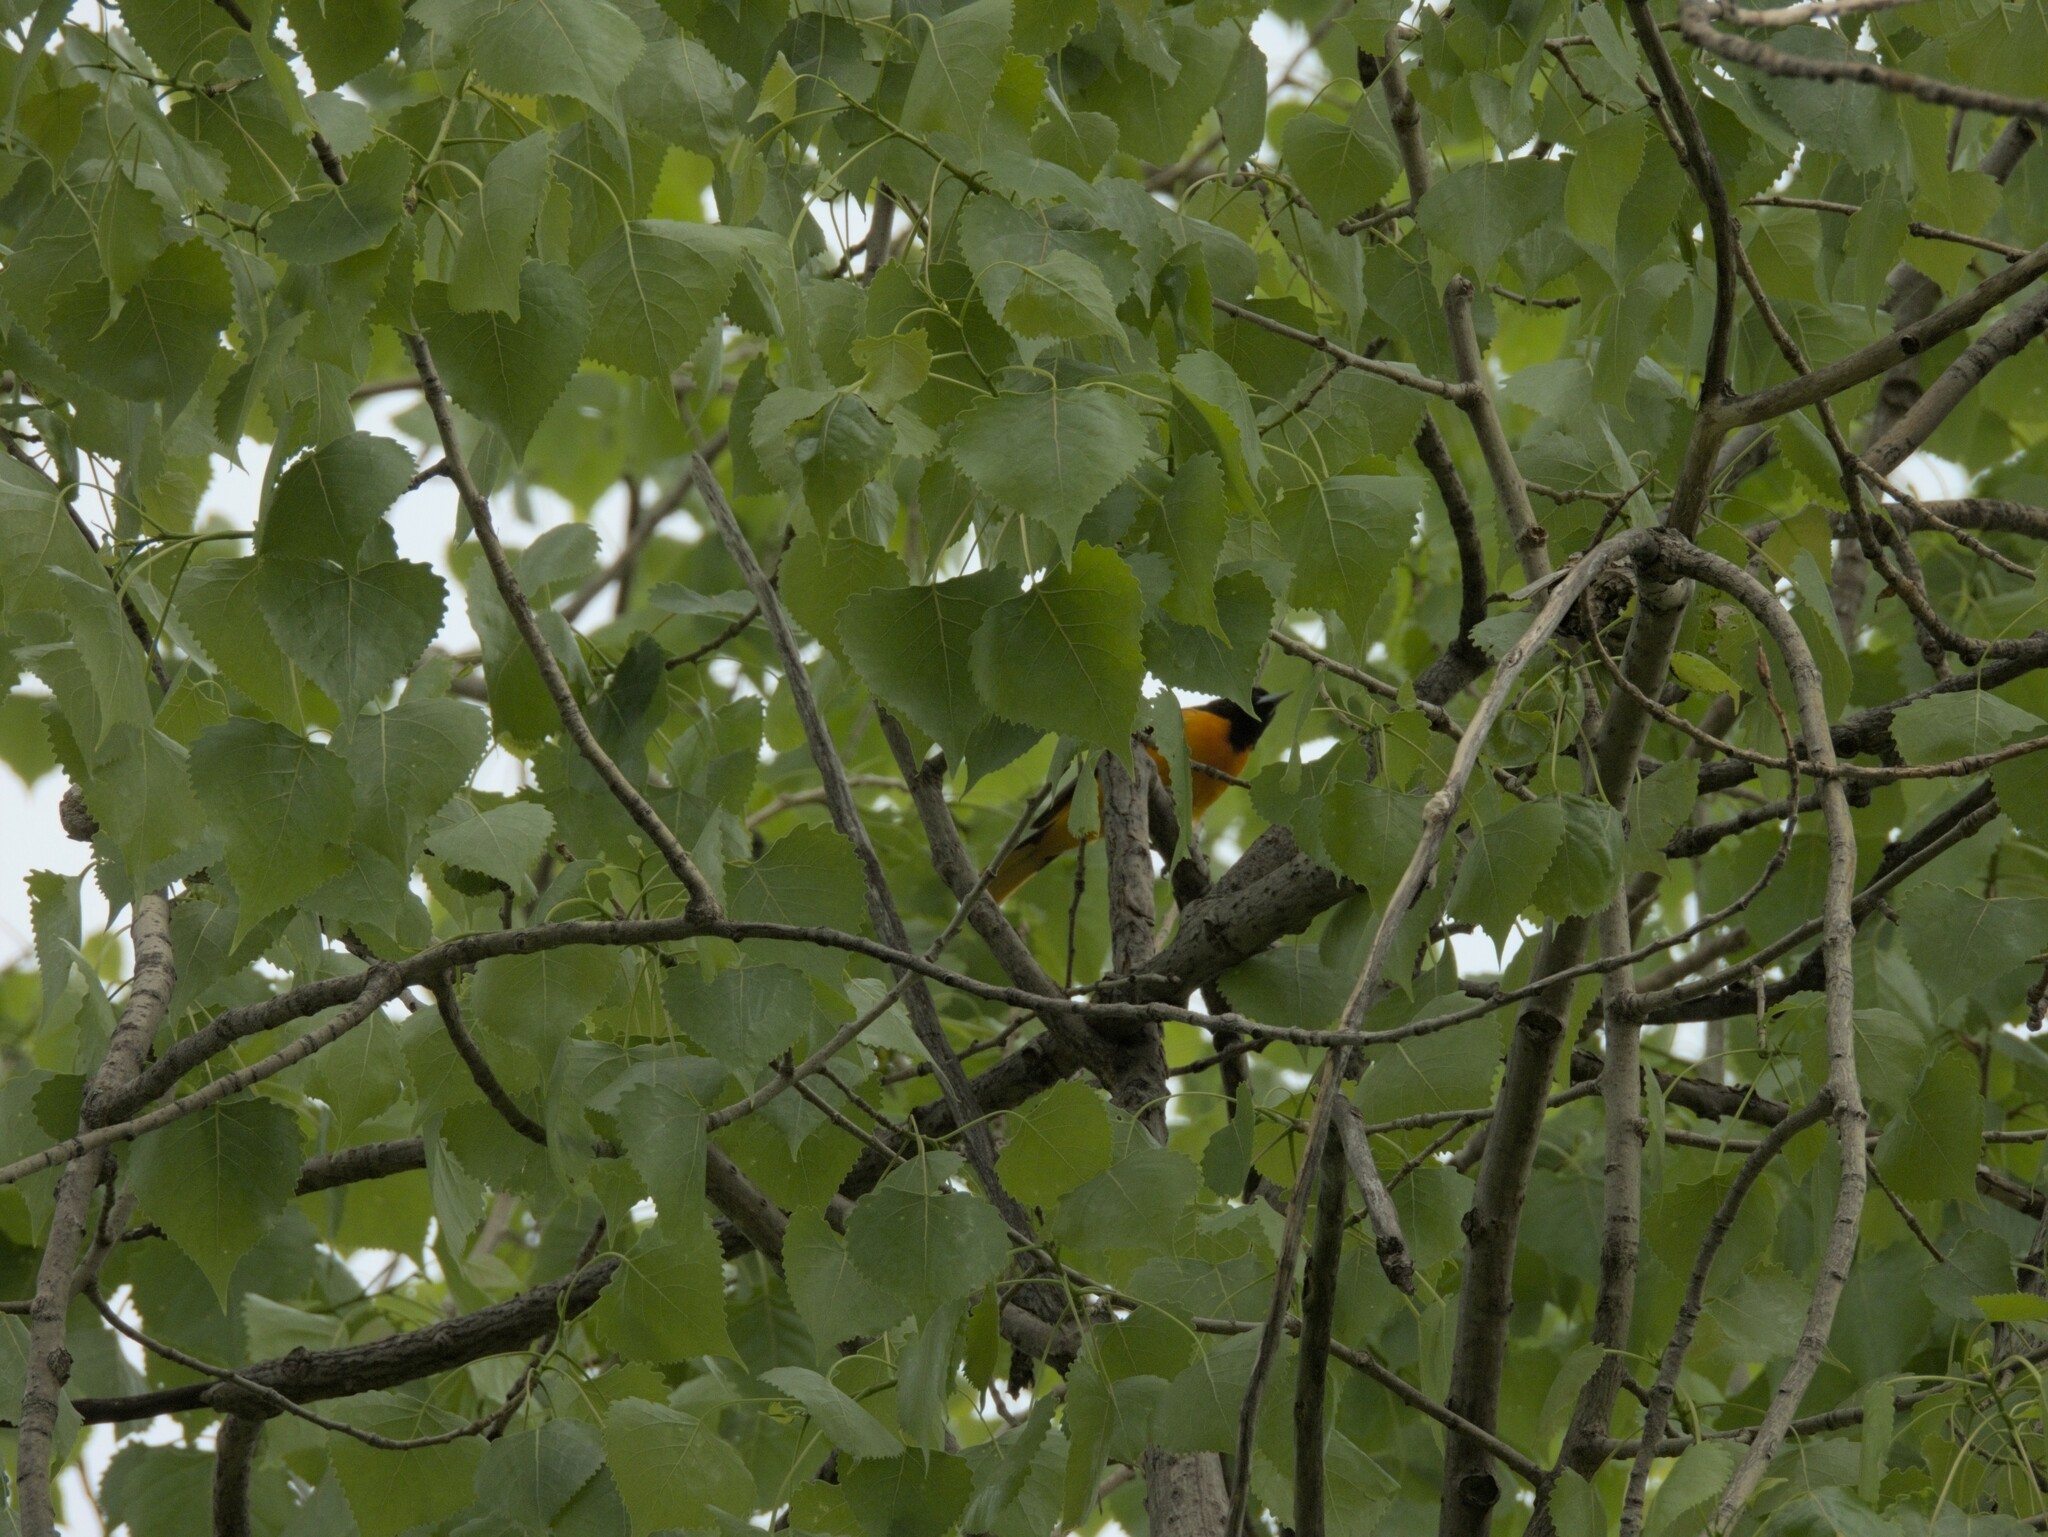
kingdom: Animalia
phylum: Chordata
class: Aves
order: Passeriformes
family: Icteridae
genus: Icterus
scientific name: Icterus galbula
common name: Baltimore oriole
